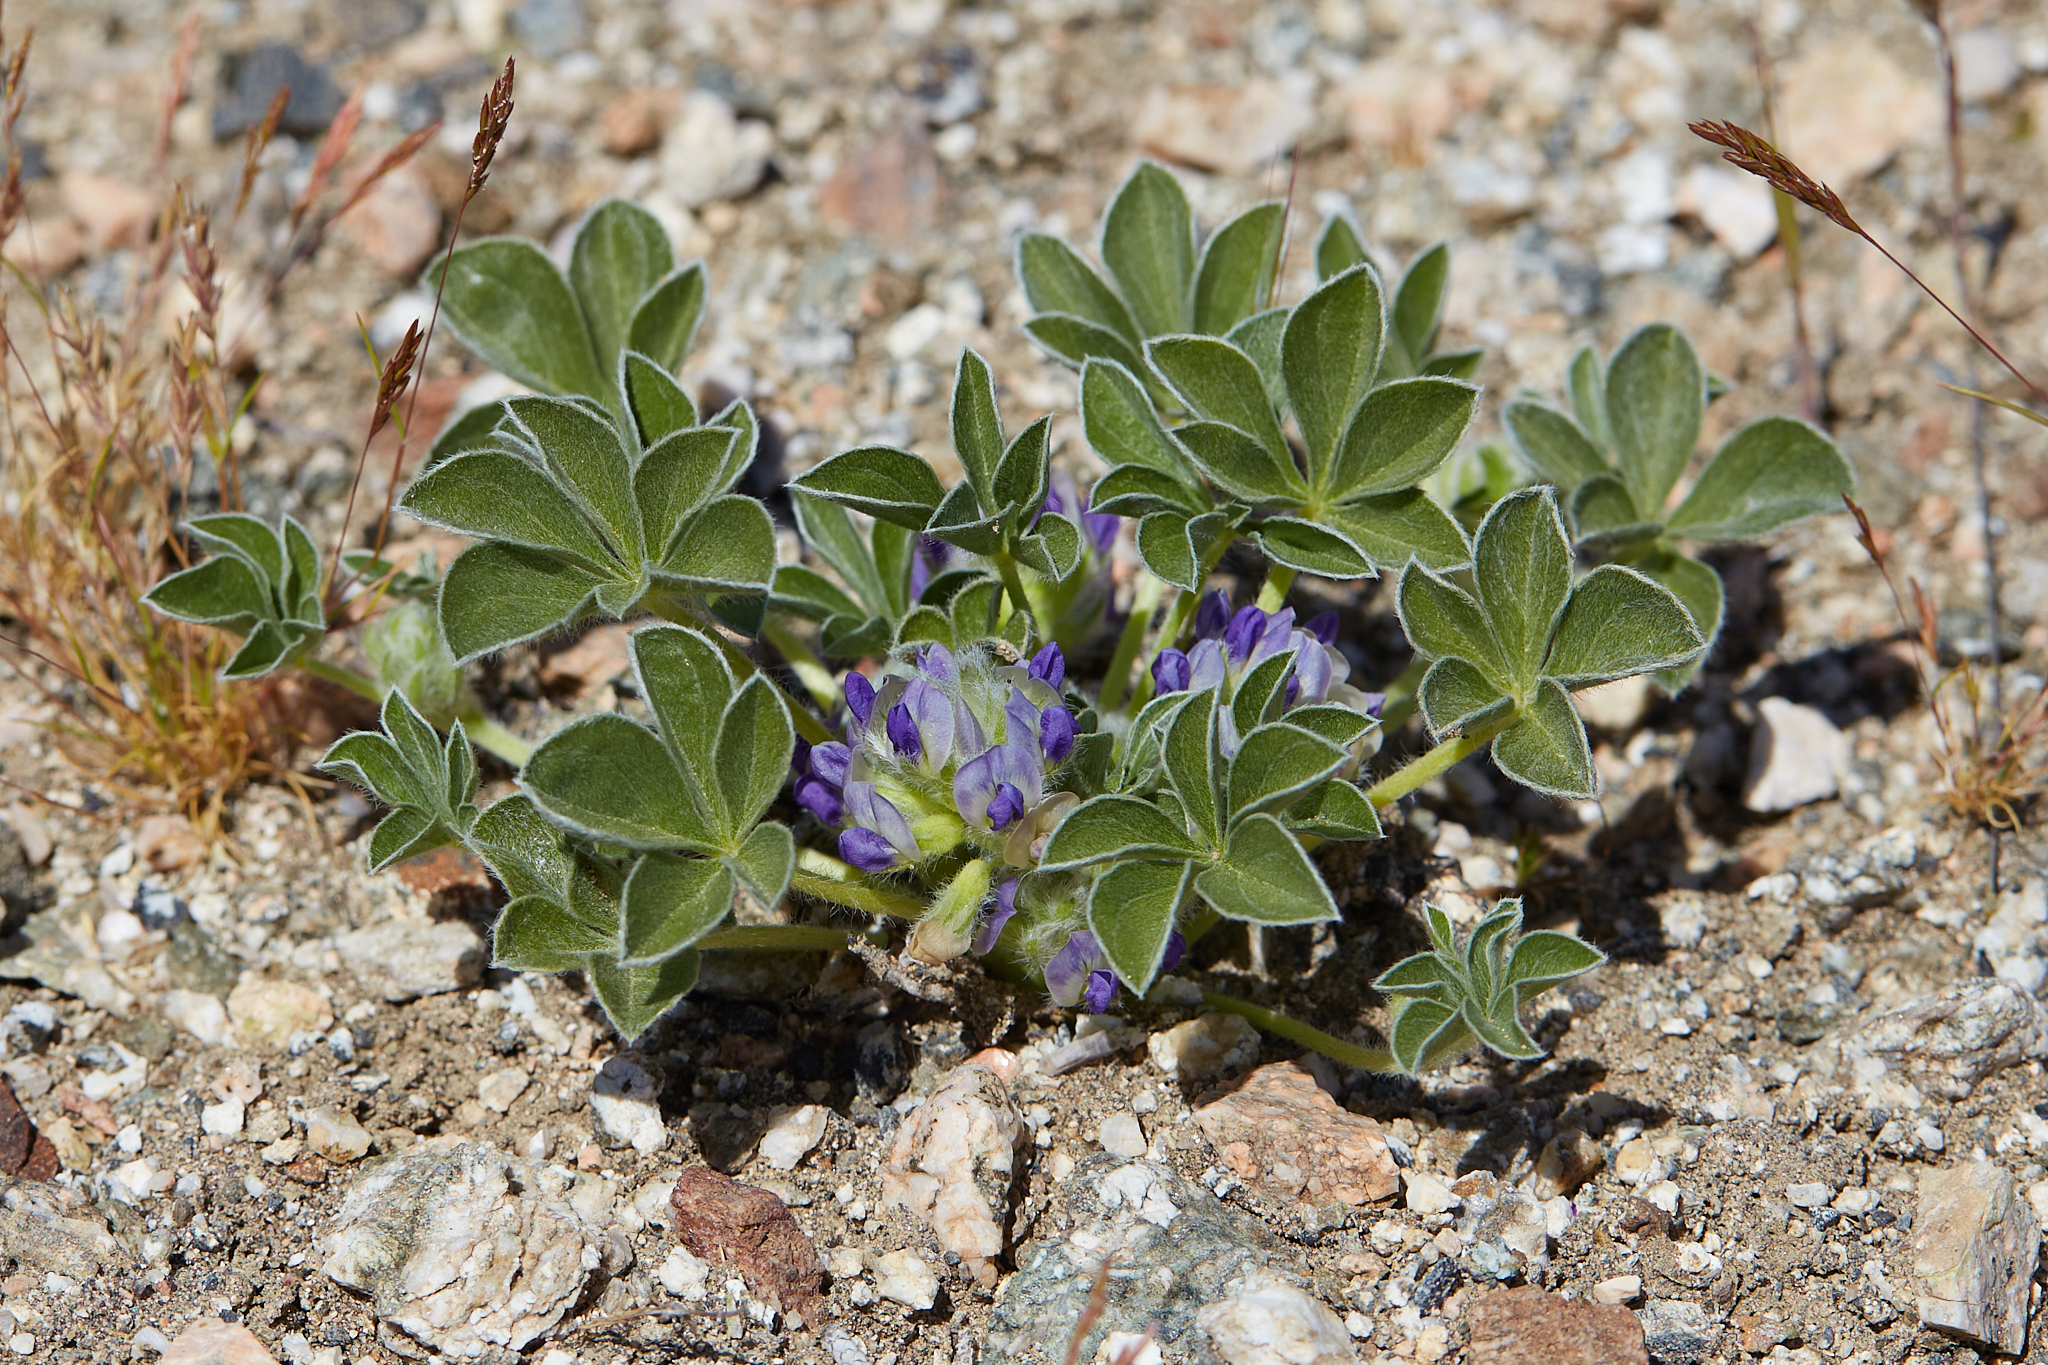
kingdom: Plantae
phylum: Tracheophyta
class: Magnoliopsida
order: Fabales
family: Fabaceae
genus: Pediomelum
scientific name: Pediomelum californicum
